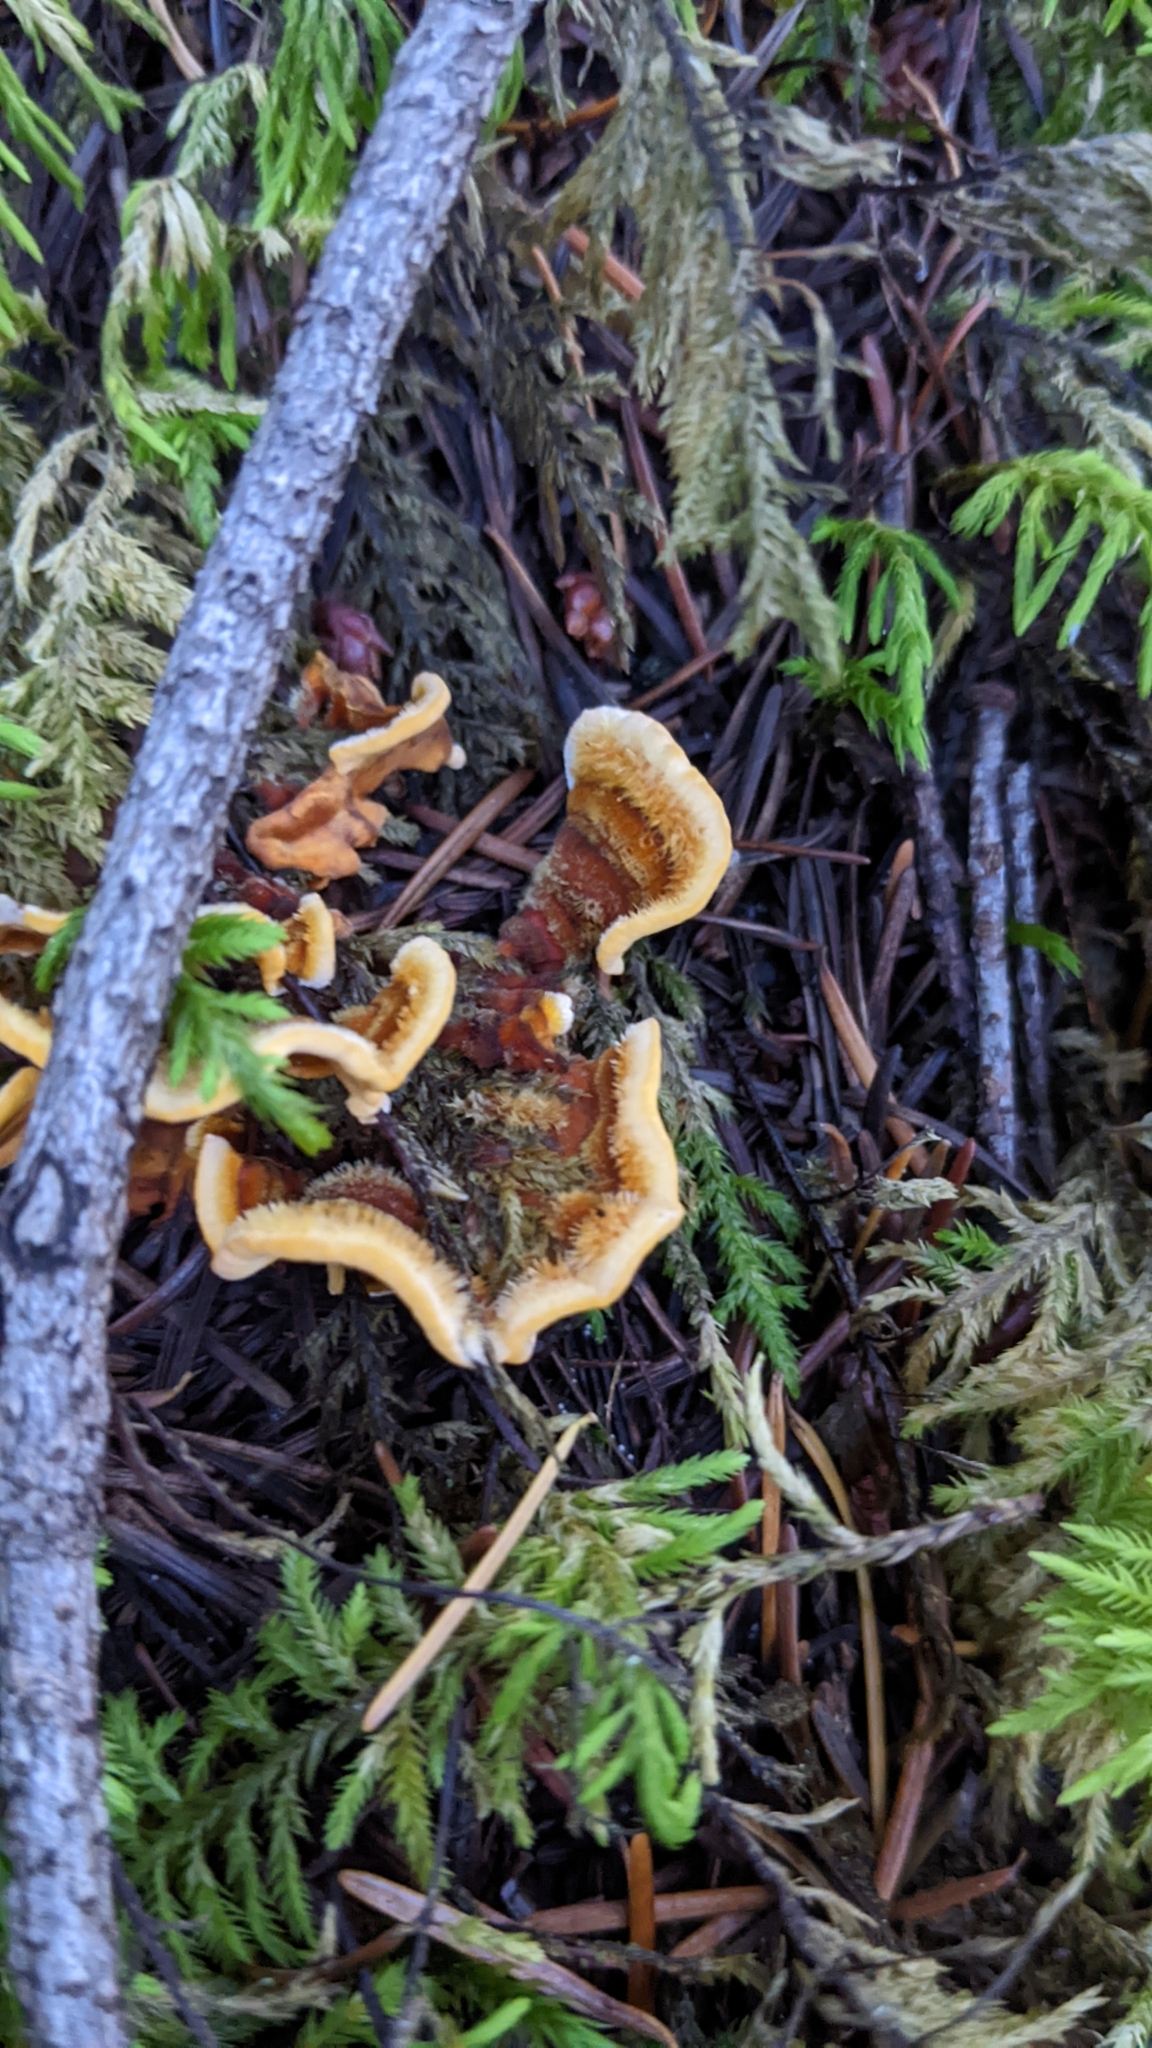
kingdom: Fungi
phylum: Basidiomycota
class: Agaricomycetes
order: Russulales
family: Stereaceae
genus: Stereum
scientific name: Stereum hirsutum
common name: Hairy curtain crust
